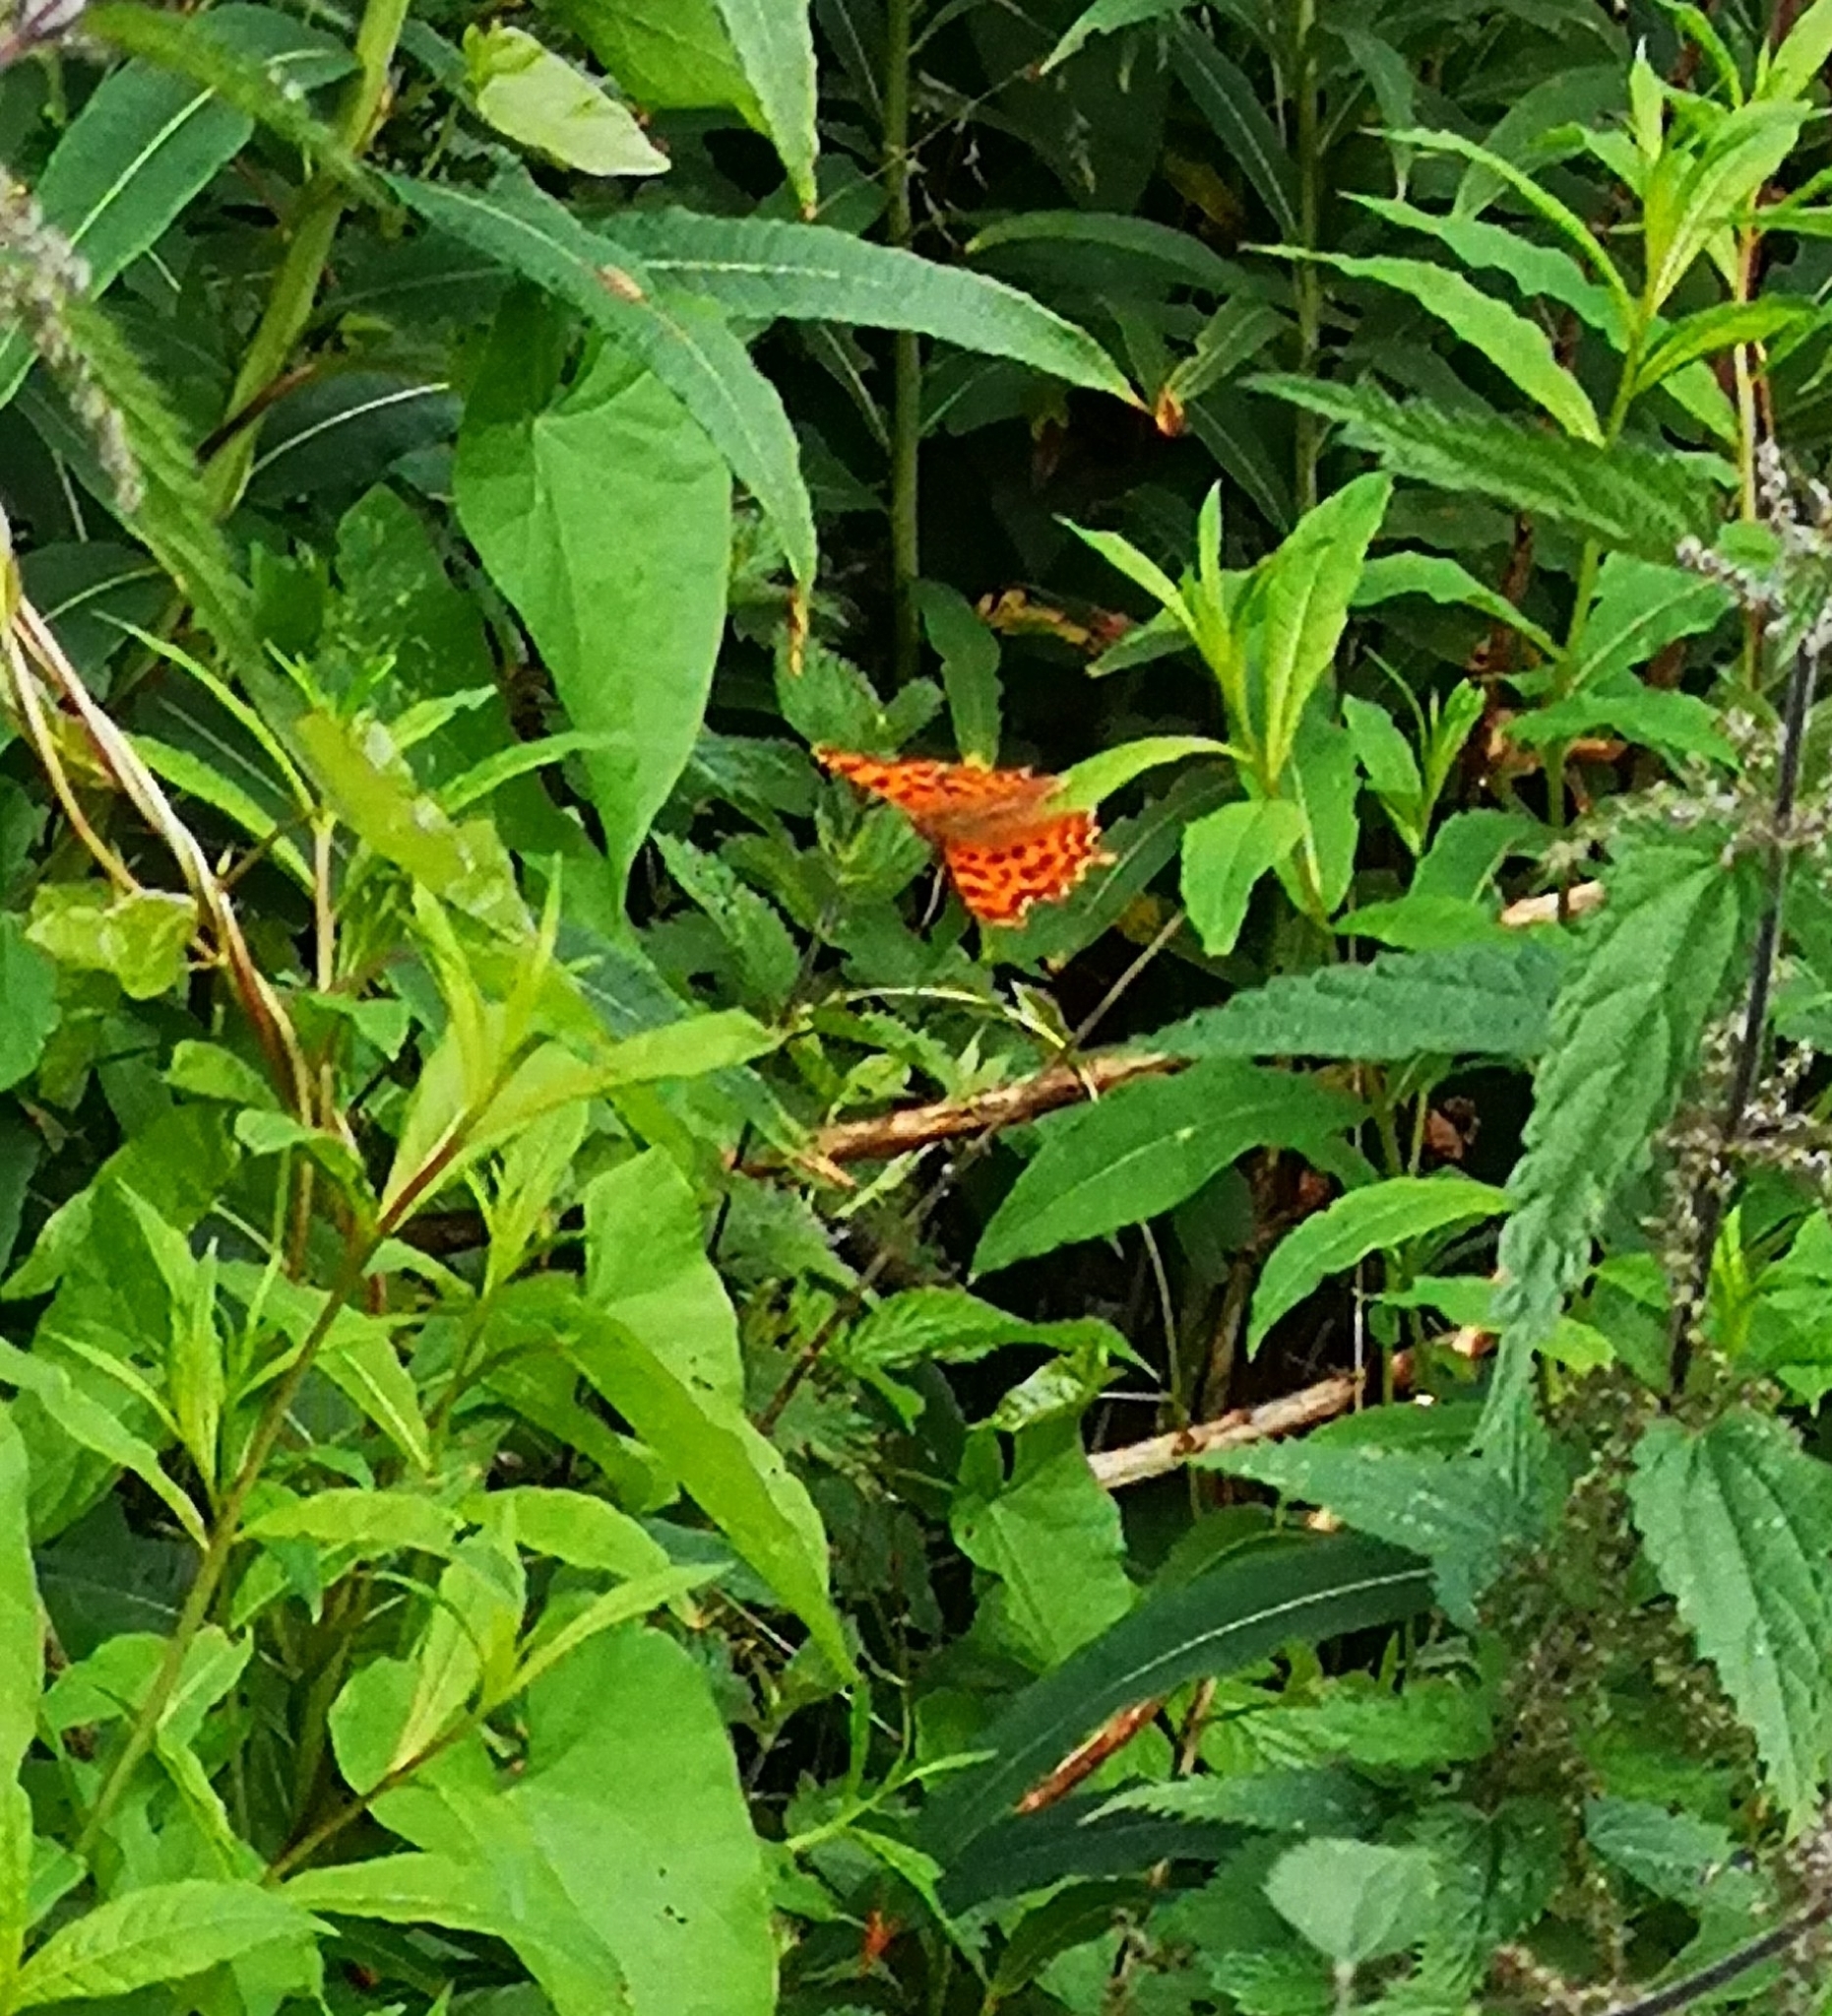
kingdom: Animalia
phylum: Arthropoda
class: Insecta
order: Lepidoptera
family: Nymphalidae
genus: Polygonia
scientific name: Polygonia c-album
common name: Comma
